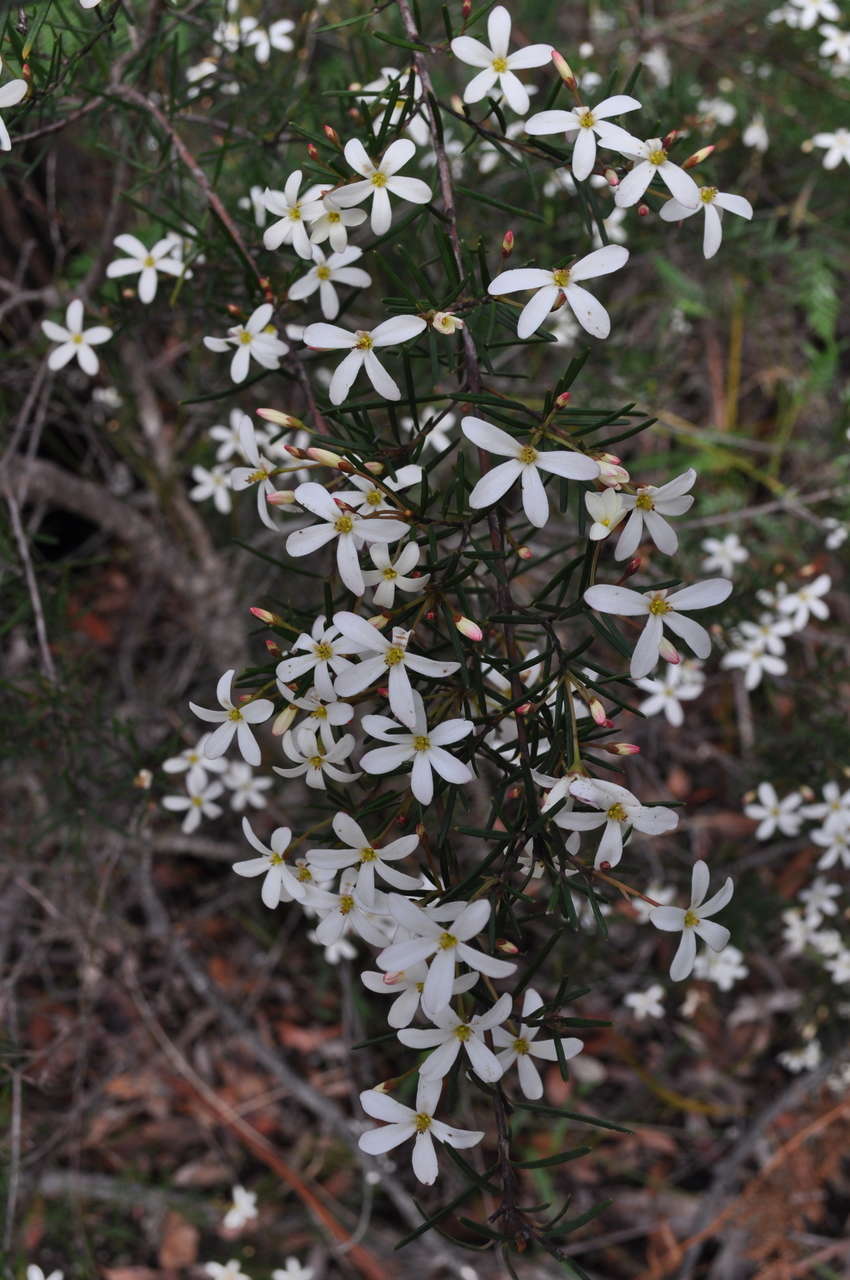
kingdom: Plantae
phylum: Tracheophyta
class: Magnoliopsida
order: Malpighiales
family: Euphorbiaceae
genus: Ricinocarpos
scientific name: Ricinocarpos pinifolius
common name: Weddingbush
